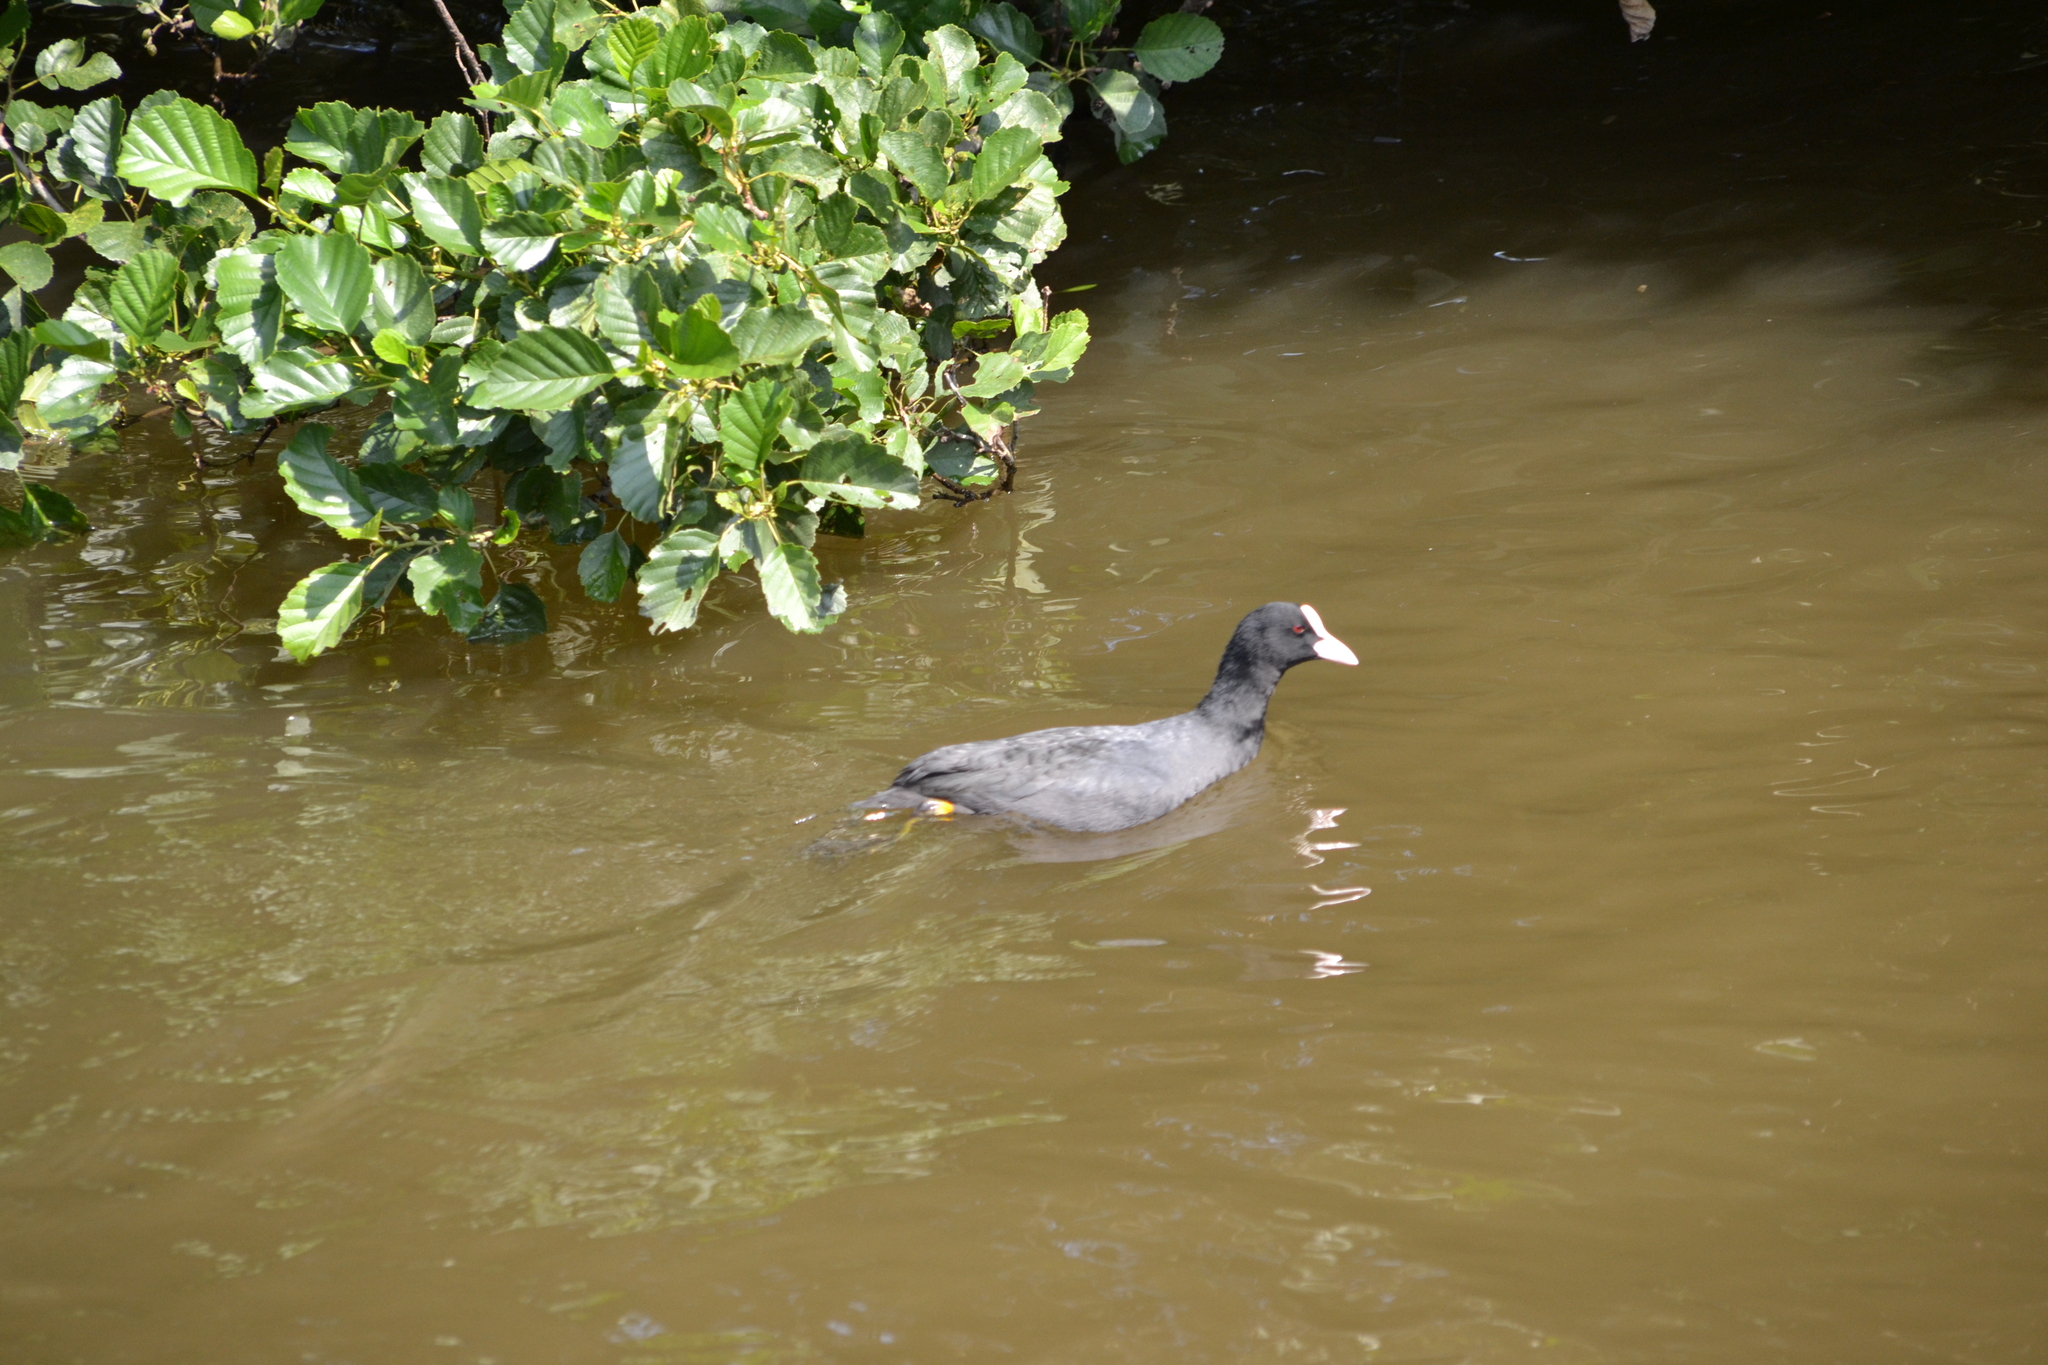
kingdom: Animalia
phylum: Chordata
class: Aves
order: Gruiformes
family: Rallidae
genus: Fulica
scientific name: Fulica atra
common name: Eurasian coot
